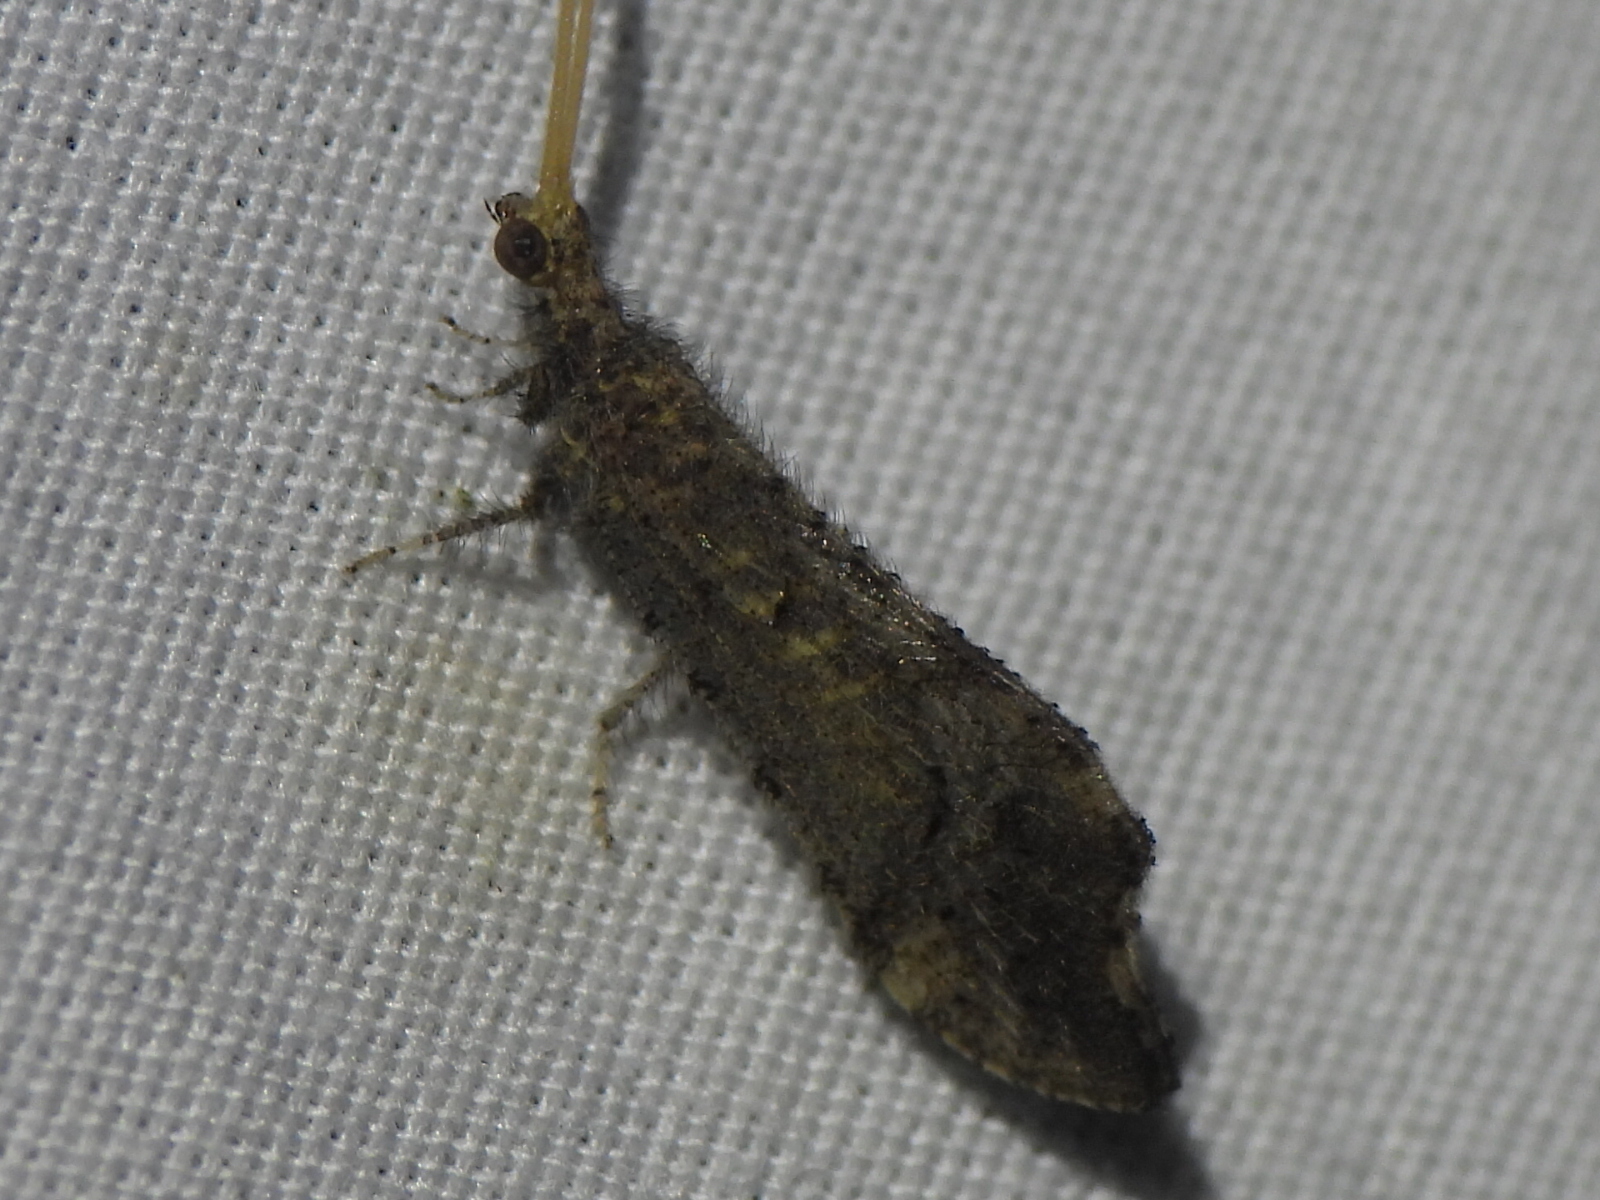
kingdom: Animalia
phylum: Arthropoda
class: Insecta
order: Neuroptera
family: Berothidae
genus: Lomamyia
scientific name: Lomamyia squamosa
